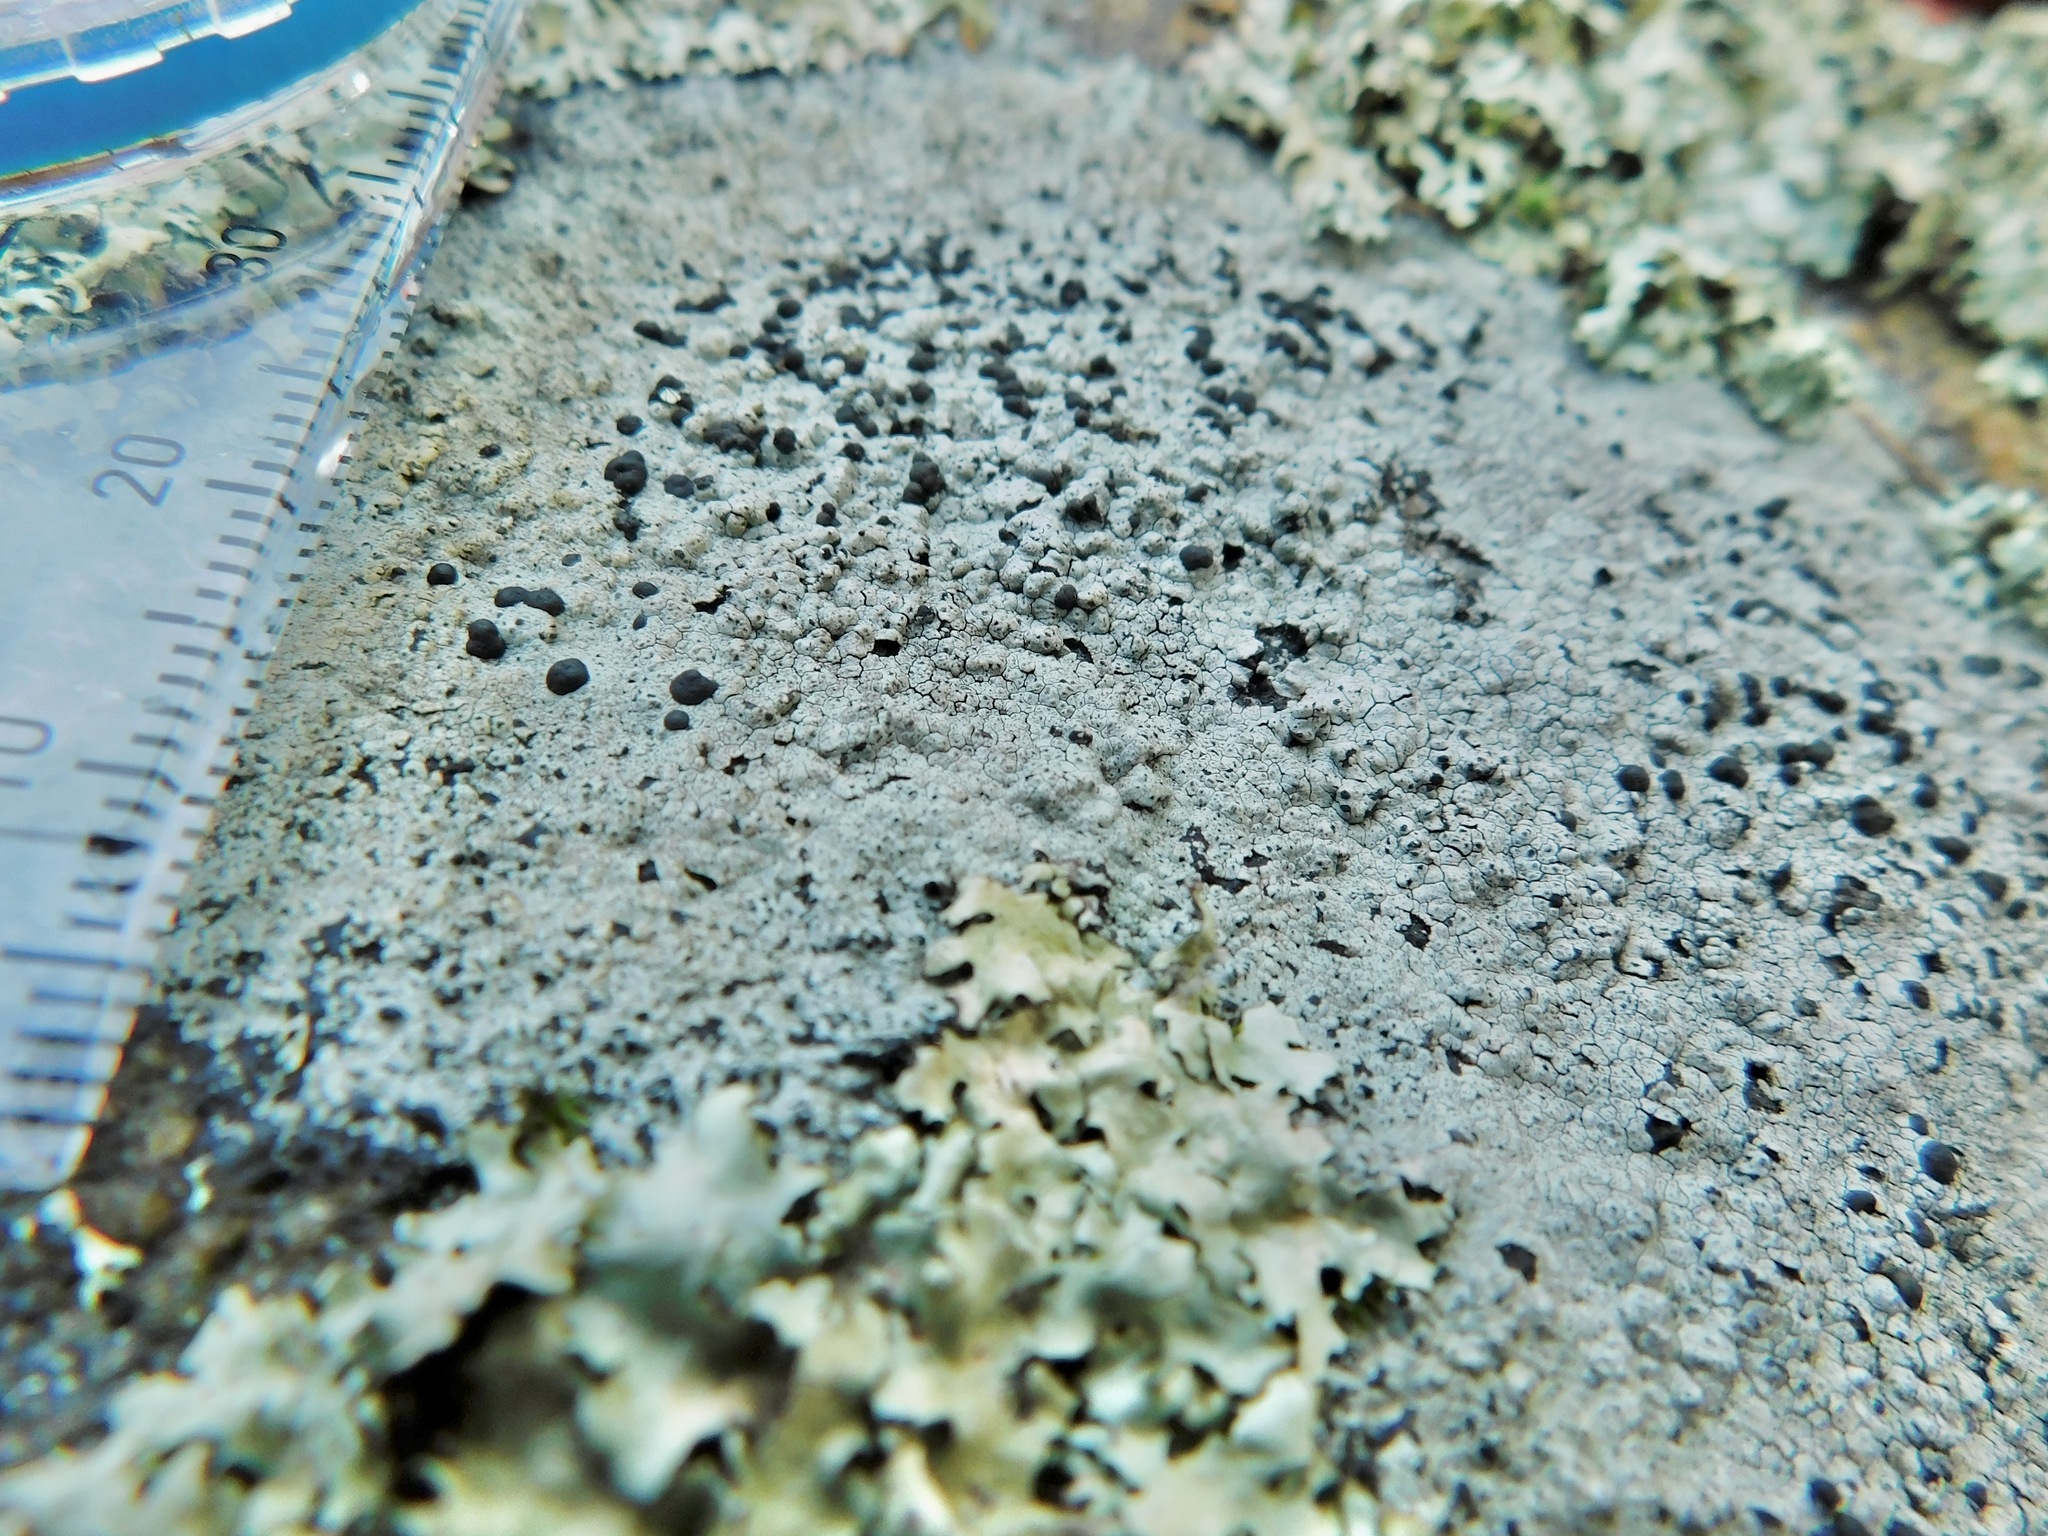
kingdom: Fungi
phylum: Ascomycota
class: Lecanoromycetes
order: Lecideales
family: Lecideaceae
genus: Porpidia
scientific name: Porpidia contraponenda
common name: Diverse porpidia lichen
